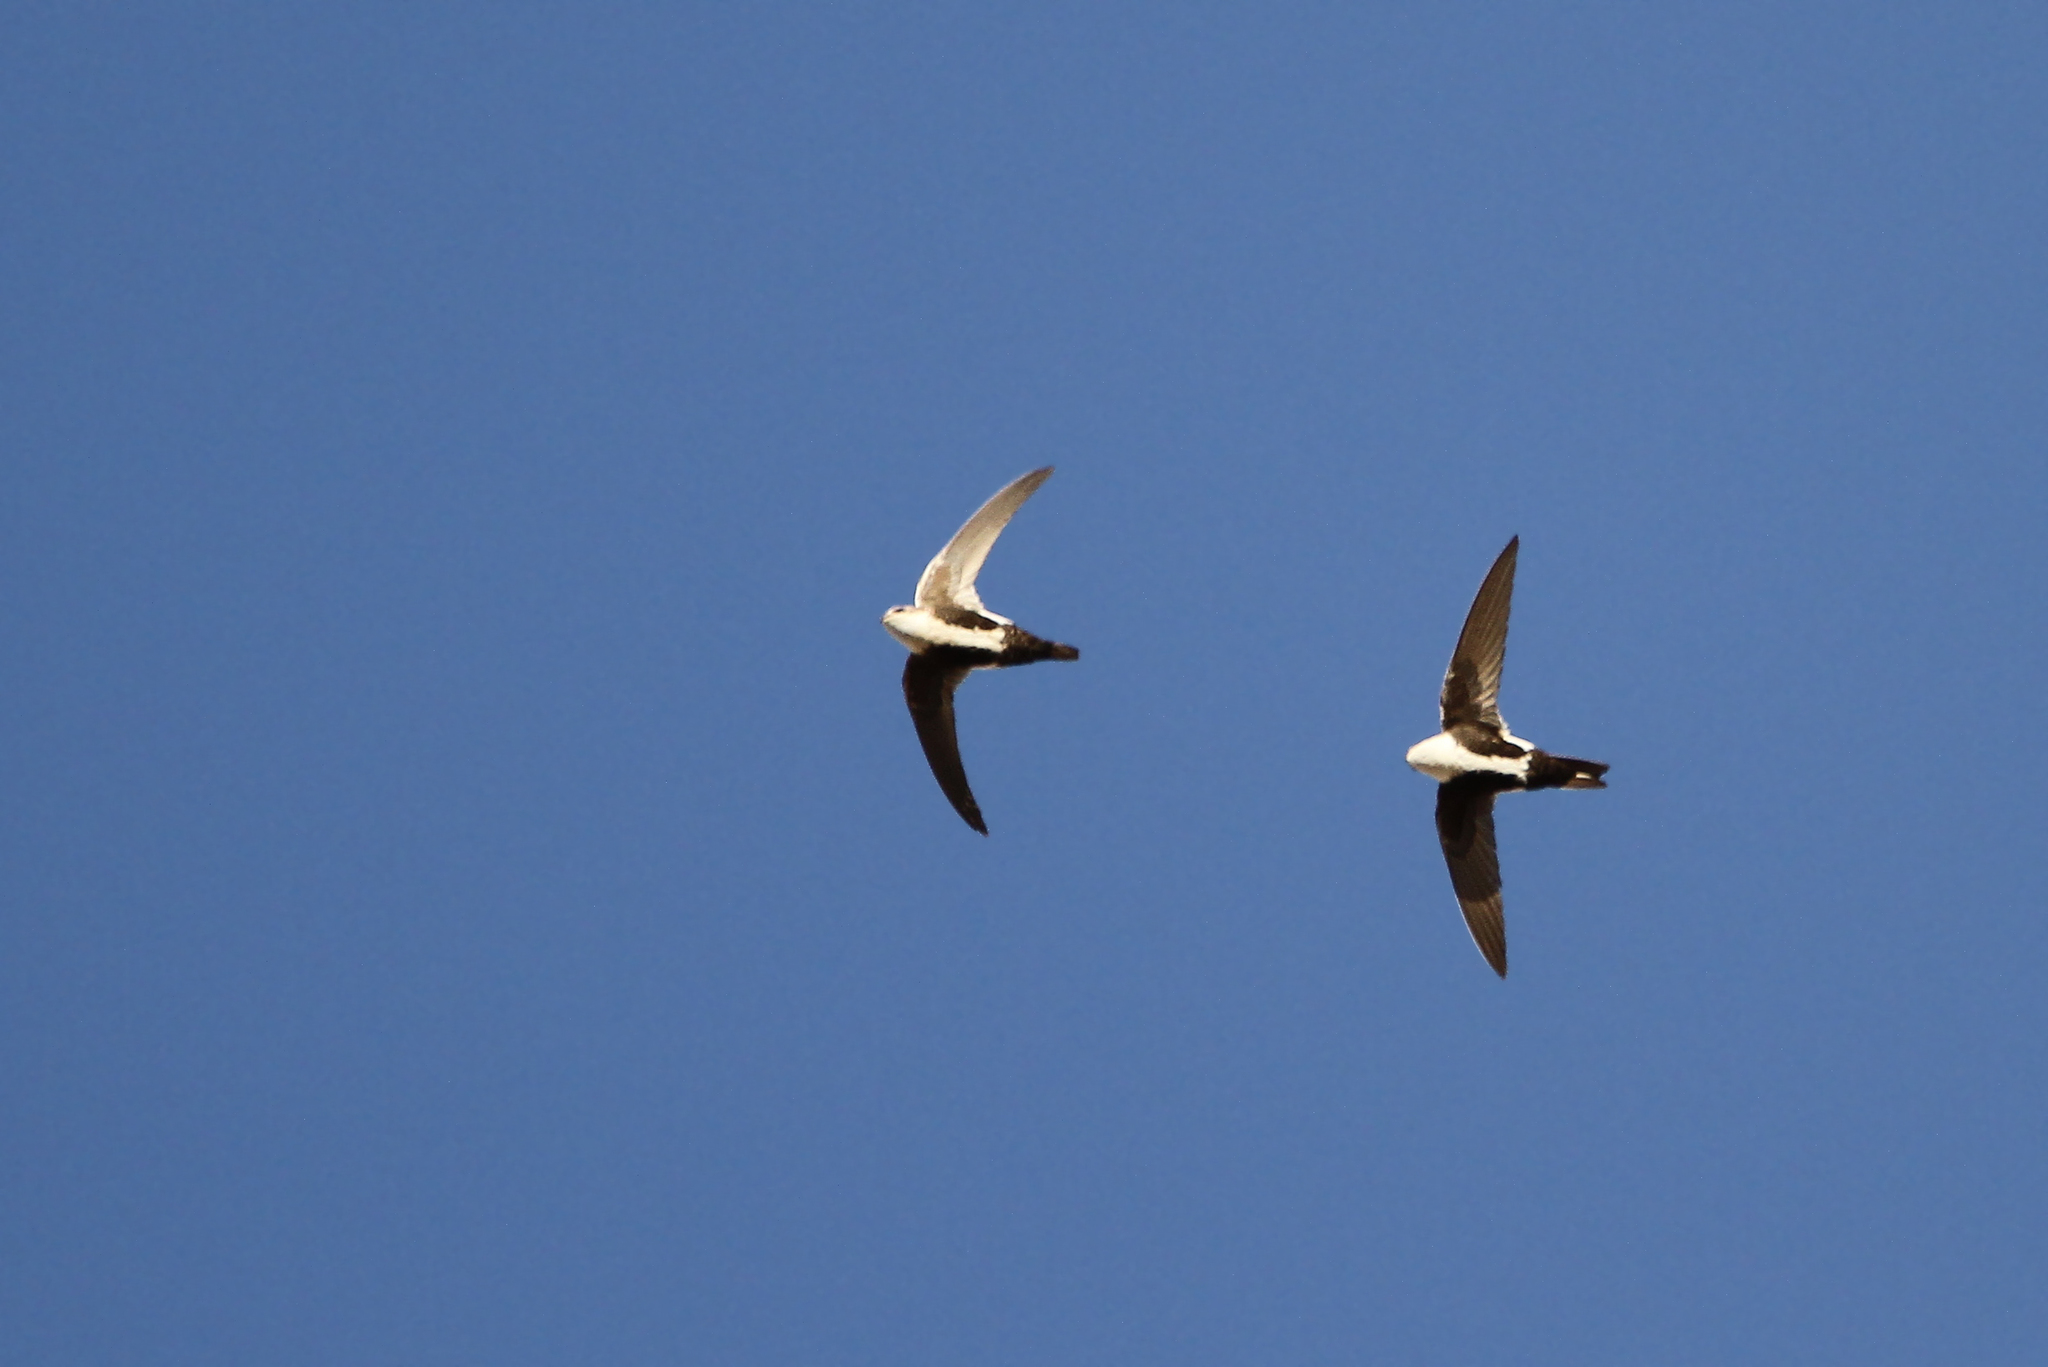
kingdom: Animalia
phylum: Chordata
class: Aves
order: Apodiformes
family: Apodidae
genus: Aeronautes
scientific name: Aeronautes saxatalis
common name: White-throated swift
